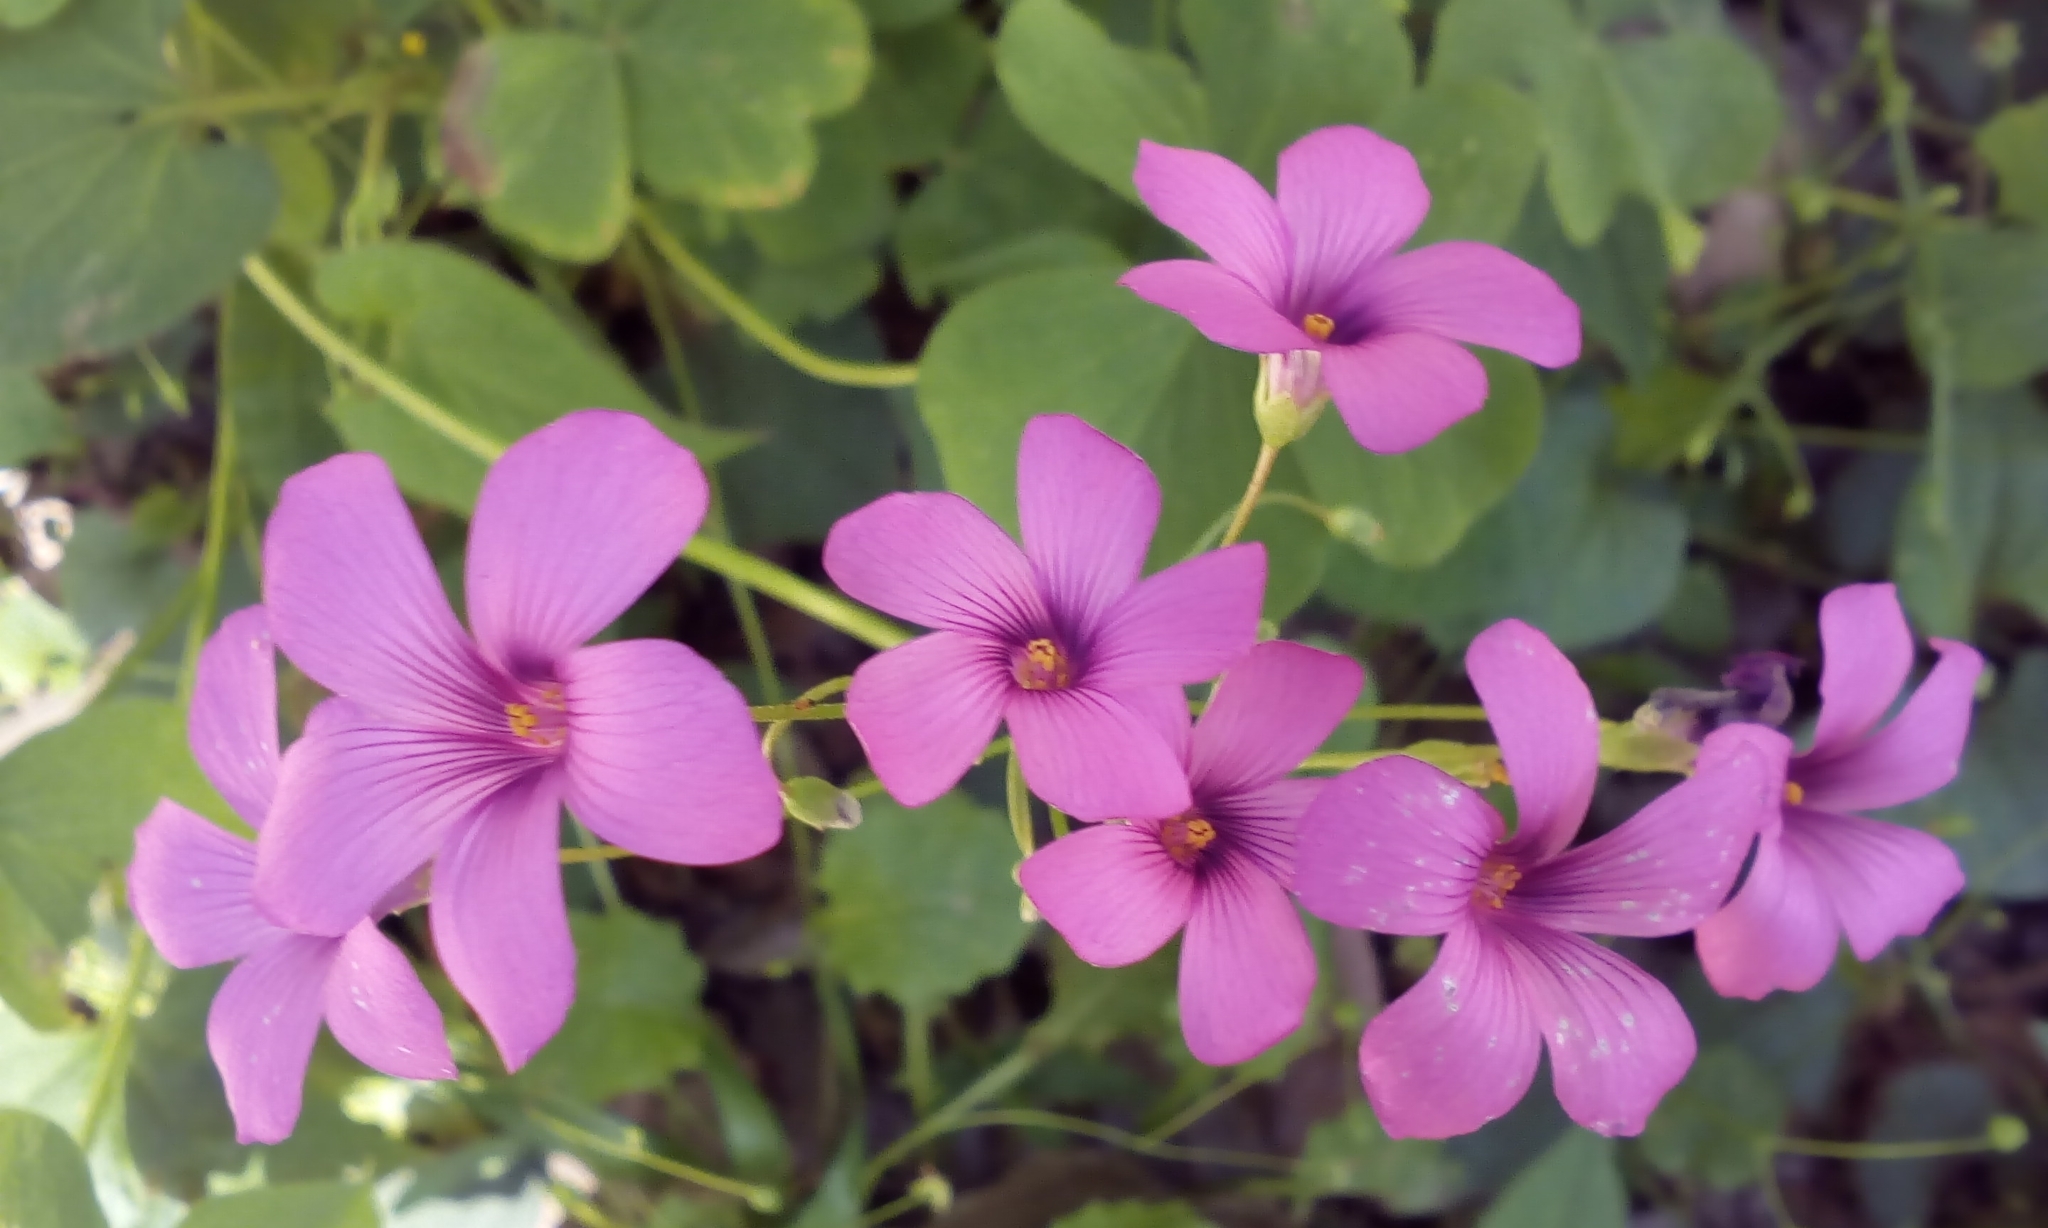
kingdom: Plantae
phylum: Tracheophyta
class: Magnoliopsida
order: Oxalidales
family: Oxalidaceae
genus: Oxalis
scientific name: Oxalis articulata
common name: Pink-sorrel
